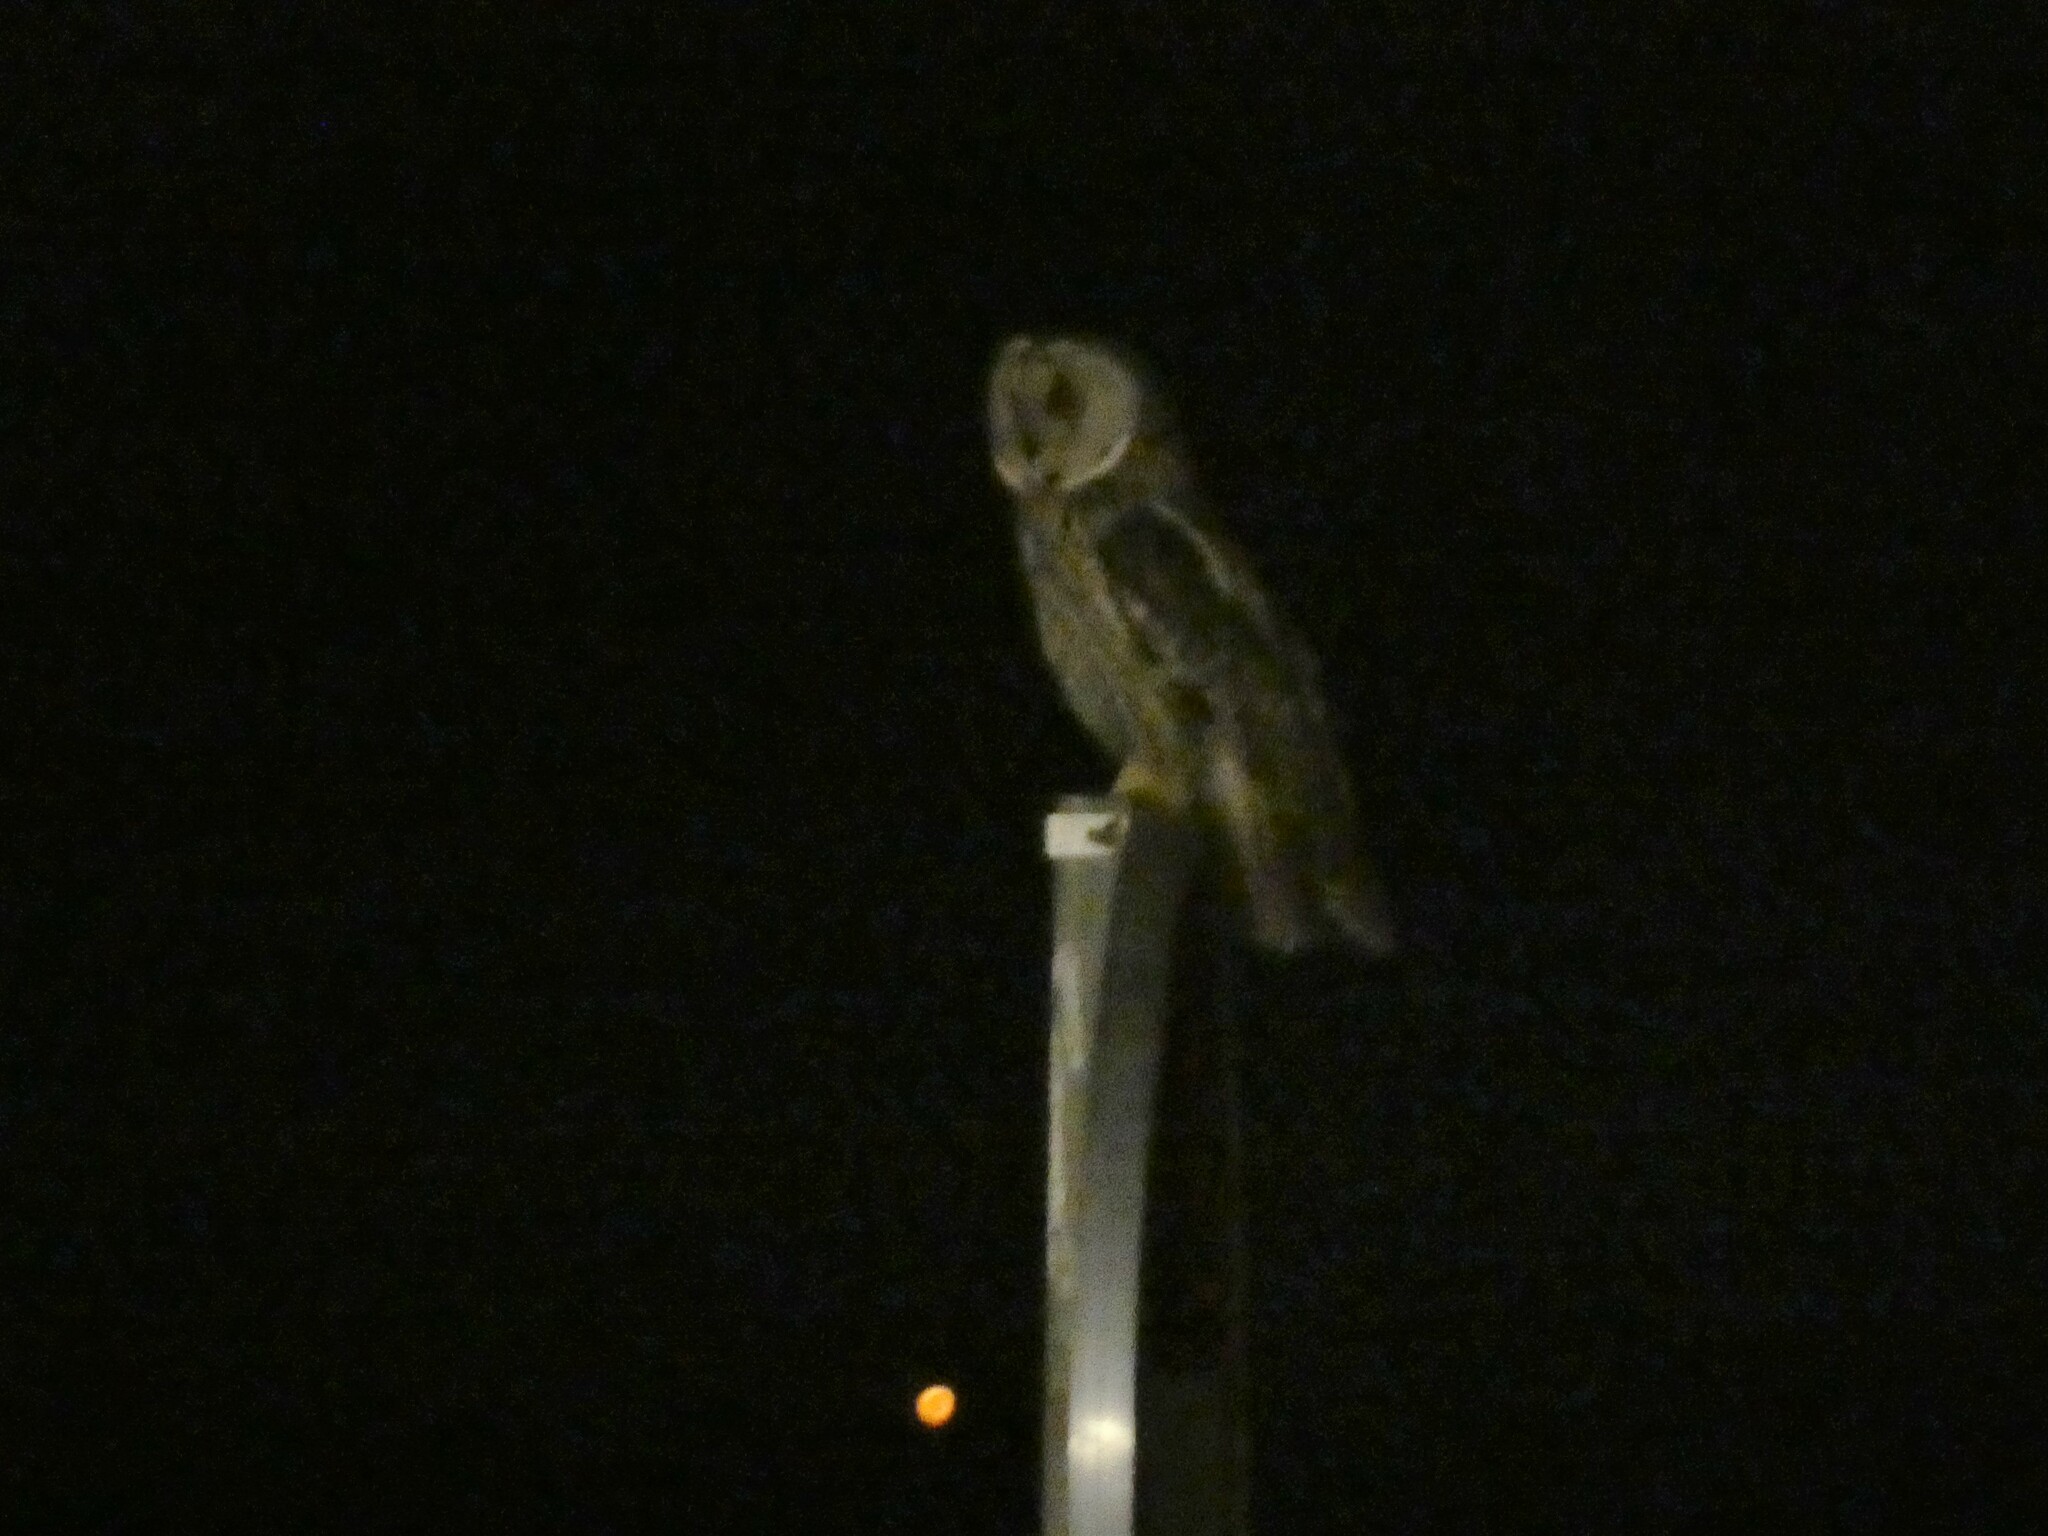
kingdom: Animalia
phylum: Chordata
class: Aves
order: Strigiformes
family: Strigidae
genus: Asio
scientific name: Asio otus
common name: Long-eared owl
